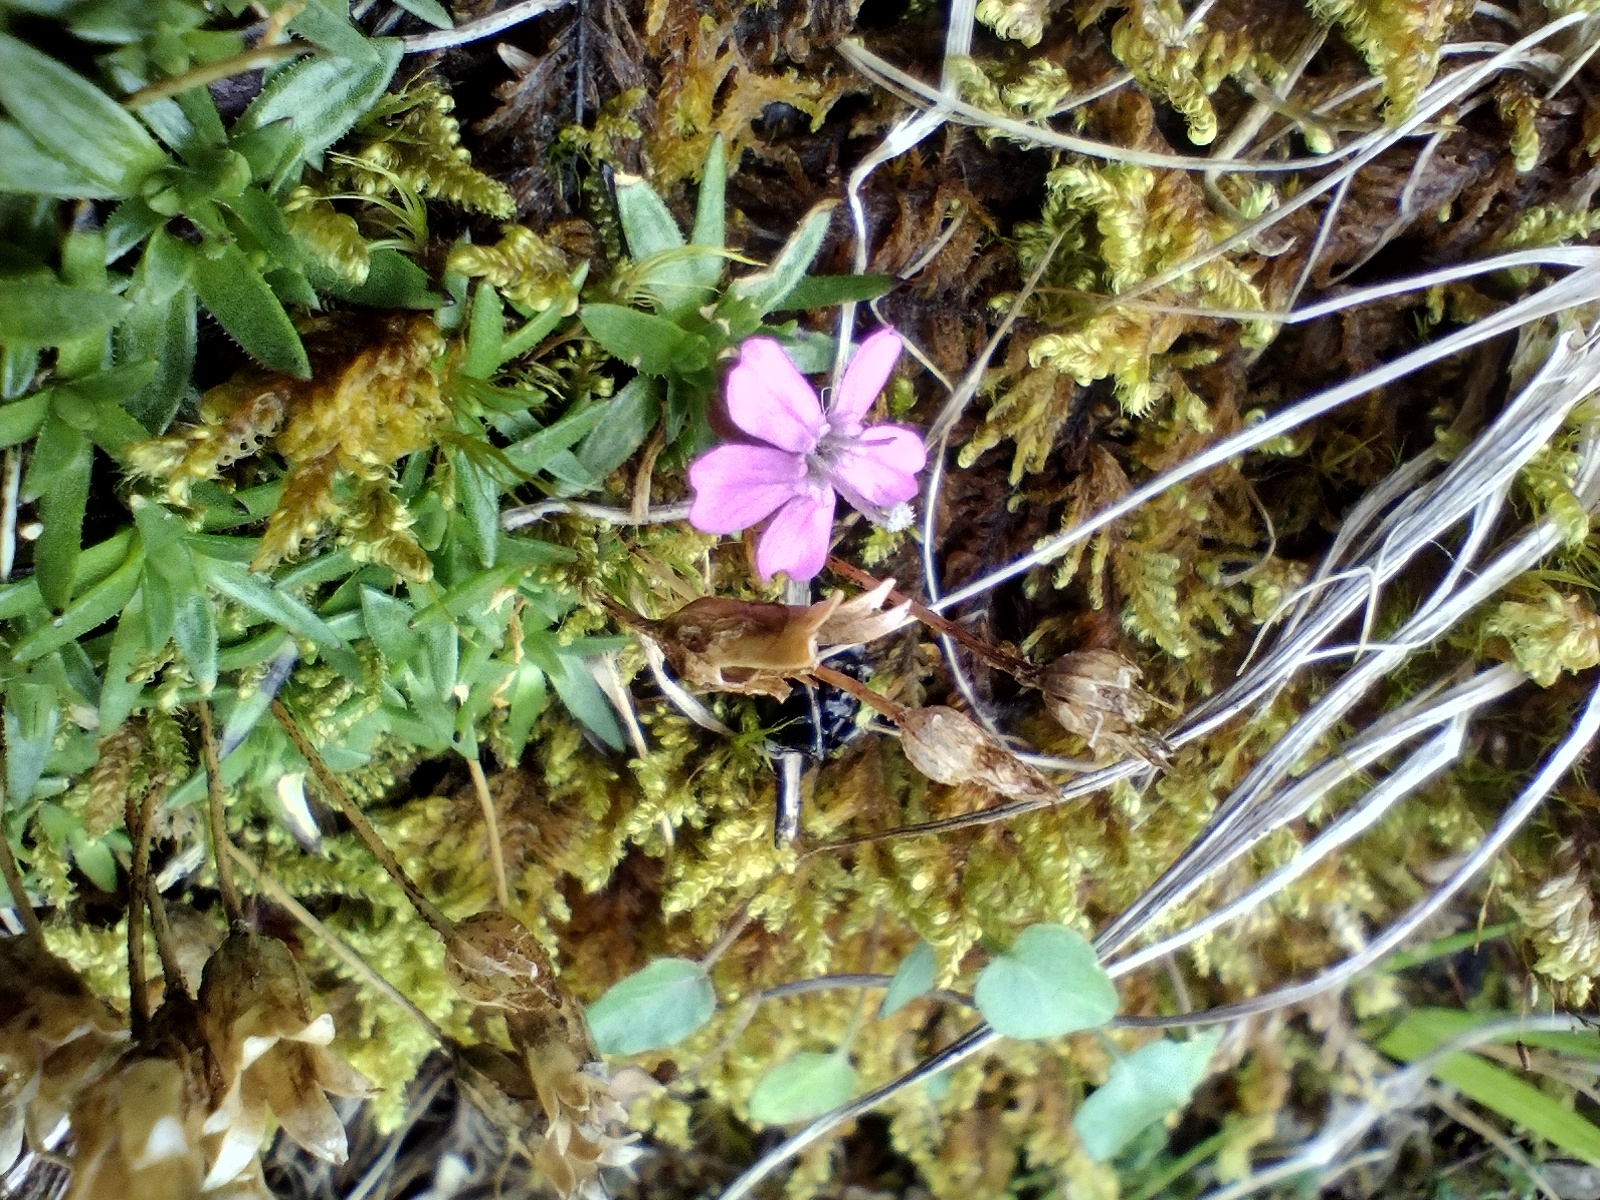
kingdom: Plantae
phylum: Tracheophyta
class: Magnoliopsida
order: Caryophyllales
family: Caryophyllaceae
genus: Silene
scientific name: Silene acaulis
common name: Moss campion
